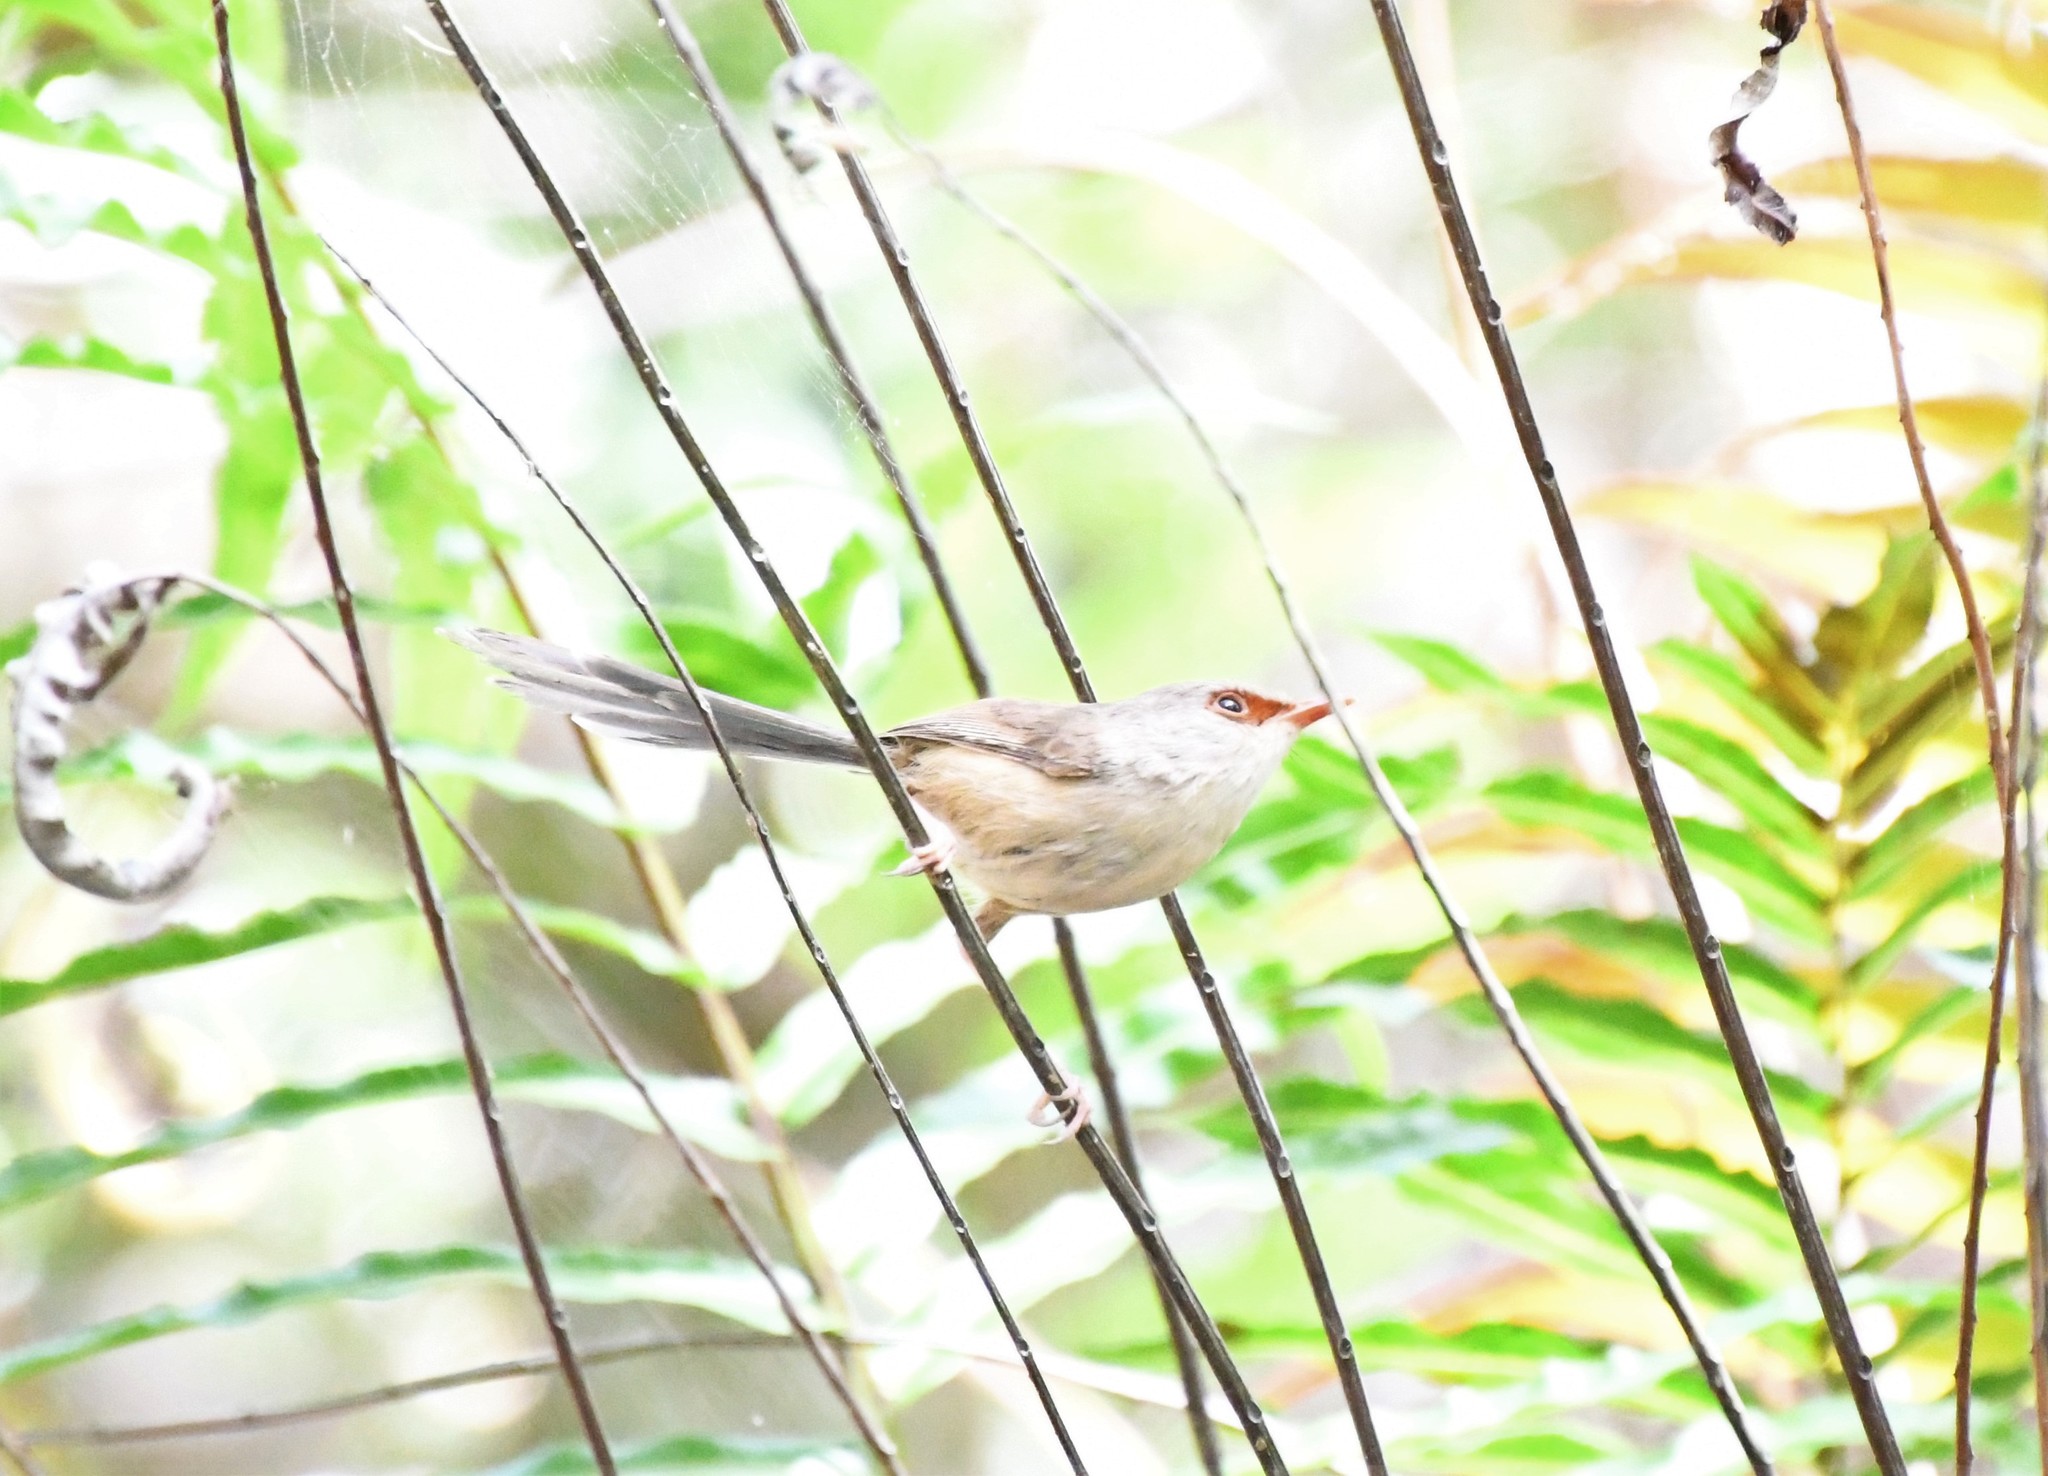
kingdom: Animalia
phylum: Chordata
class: Aves
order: Passeriformes
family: Maluridae
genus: Malurus
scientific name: Malurus lamberti
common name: Variegated fairywren
